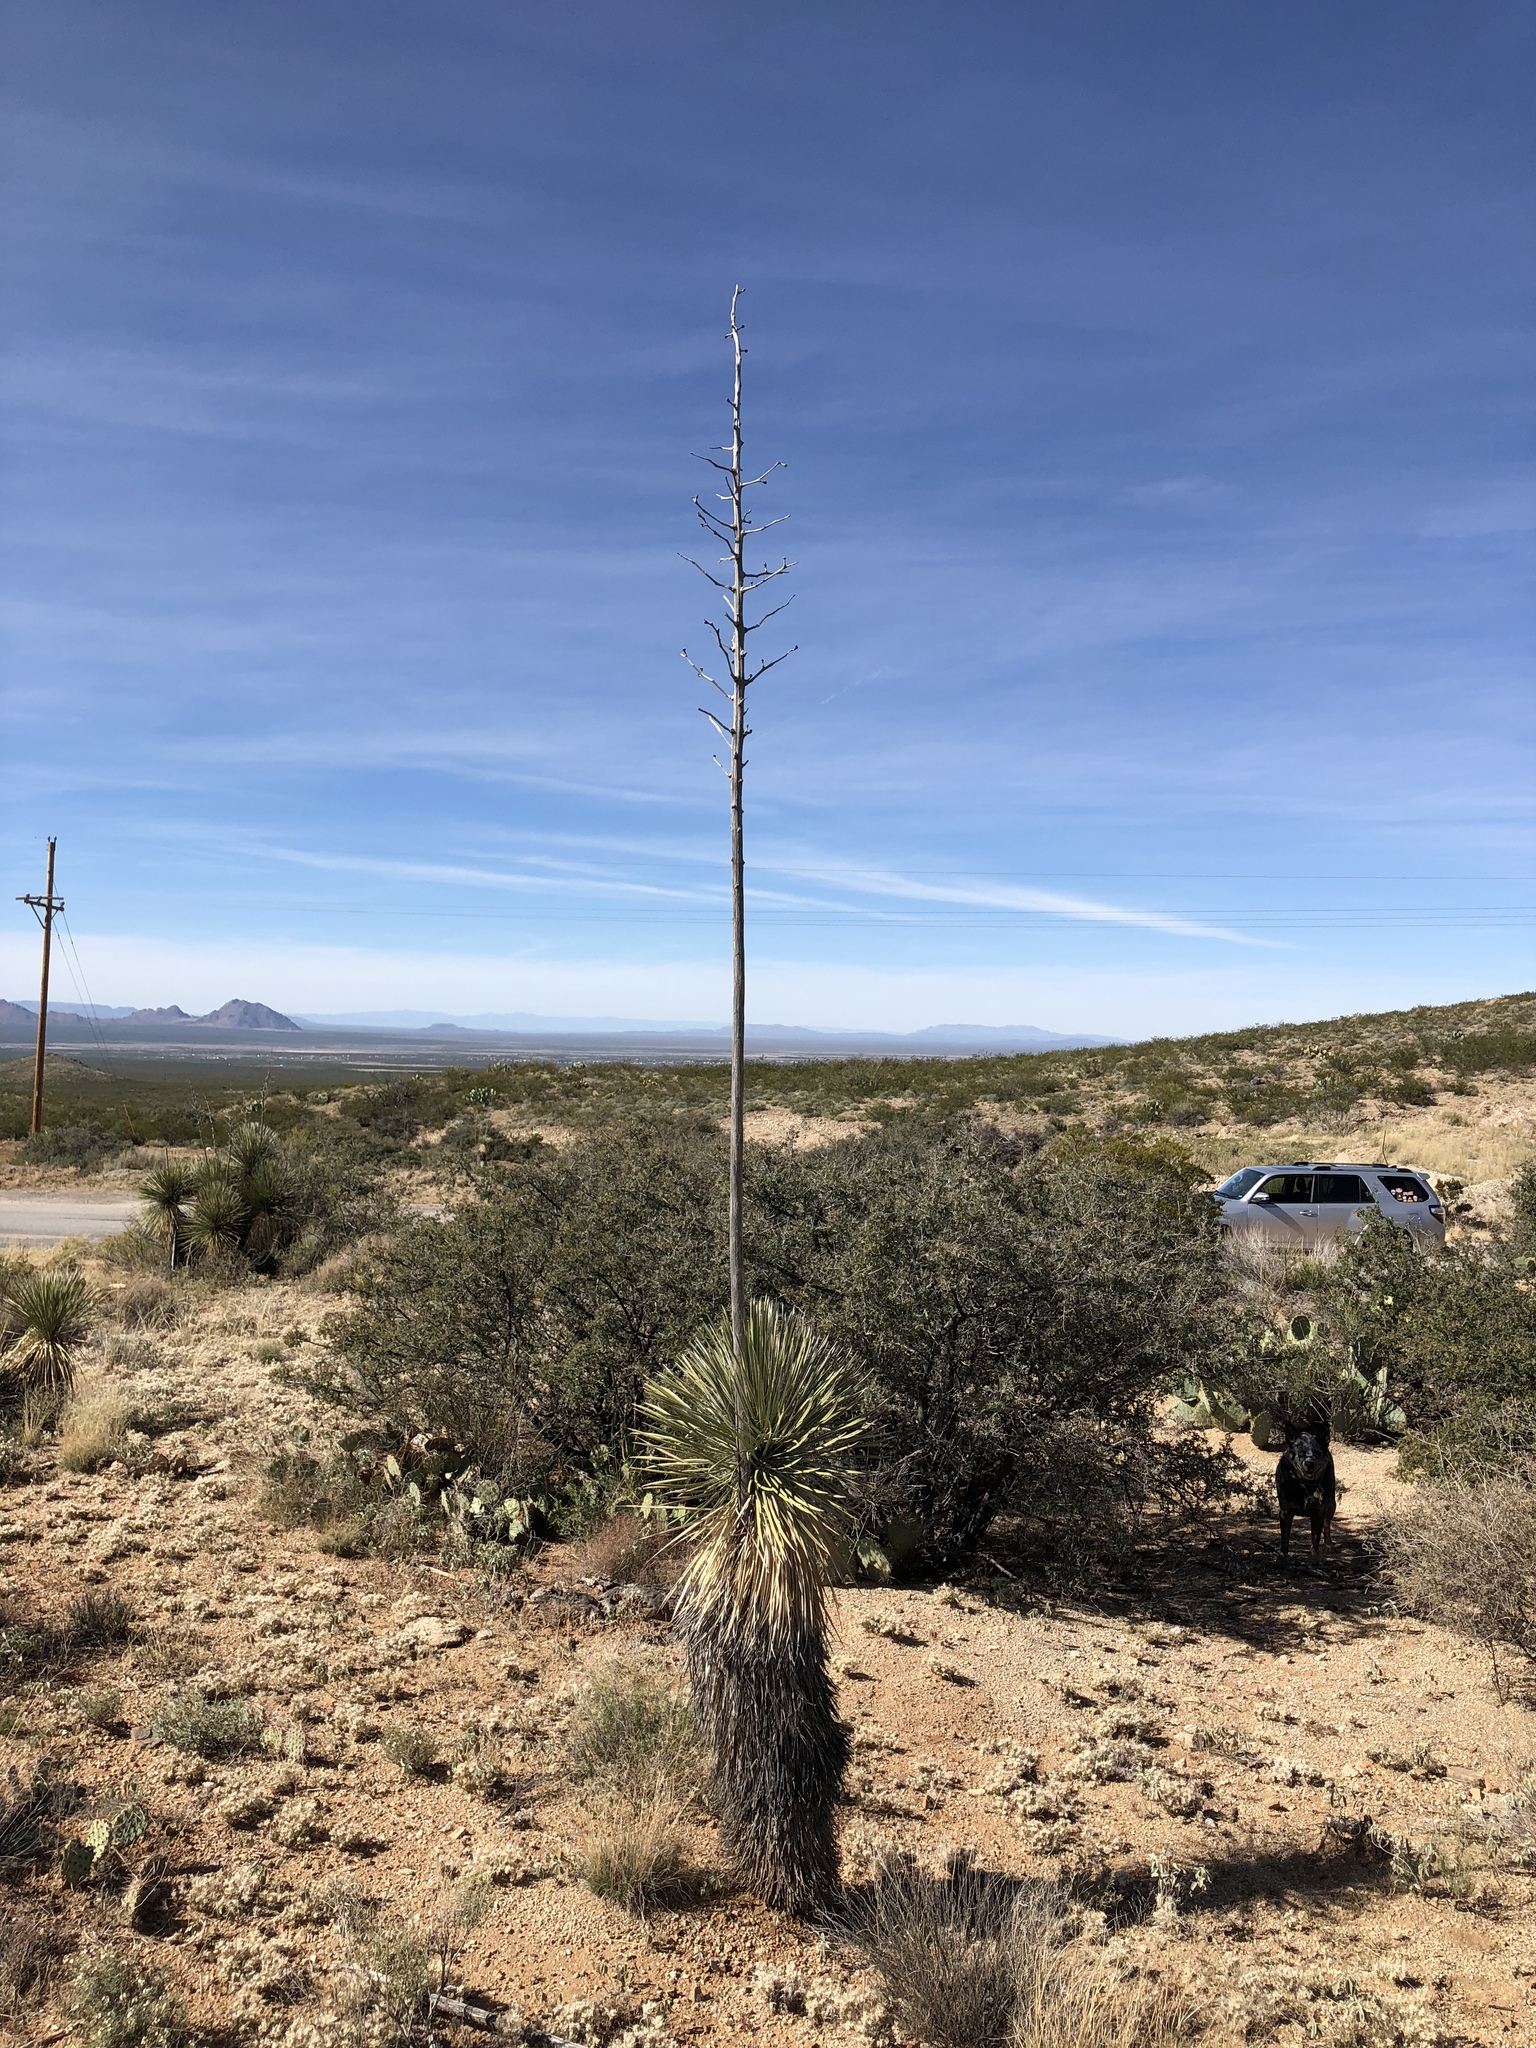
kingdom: Plantae
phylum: Tracheophyta
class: Liliopsida
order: Asparagales
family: Asparagaceae
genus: Yucca
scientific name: Yucca elata
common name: Palmella
